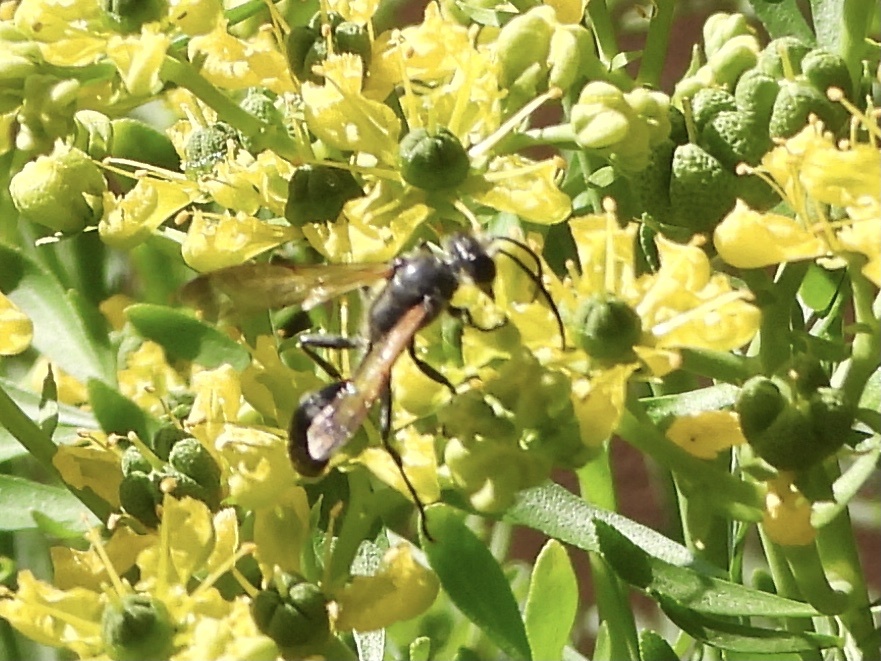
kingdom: Animalia
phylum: Arthropoda
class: Insecta
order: Hymenoptera
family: Sphecidae
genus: Isodontia
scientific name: Isodontia mexicana
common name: Mud dauber
